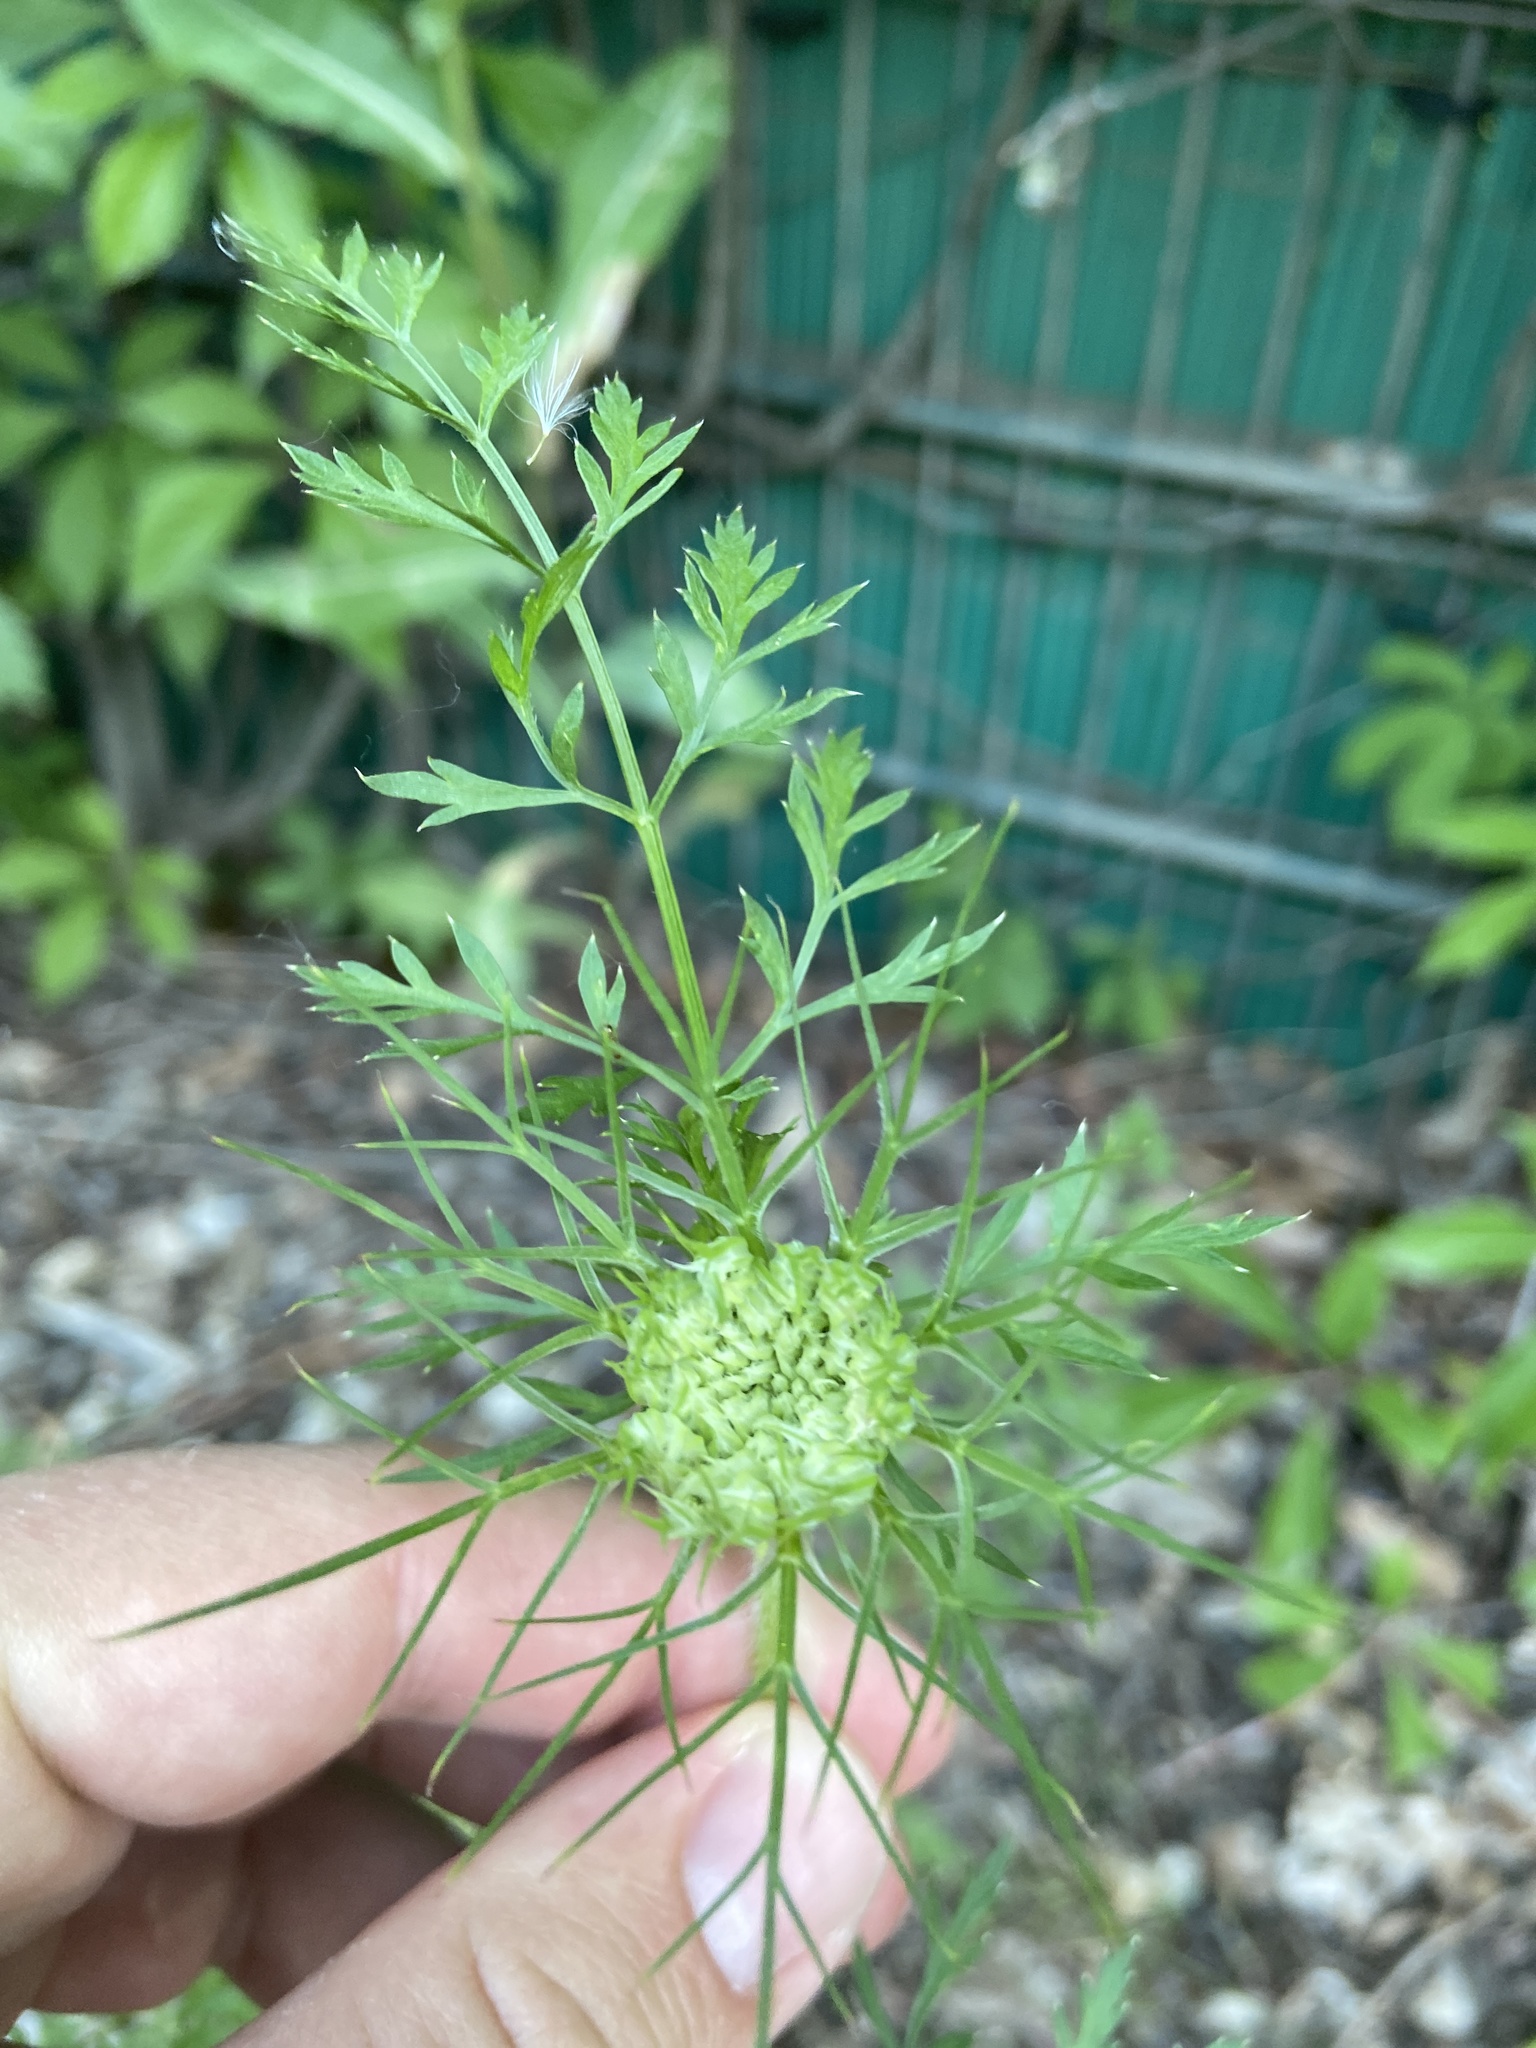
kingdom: Plantae
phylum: Tracheophyta
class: Magnoliopsida
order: Apiales
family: Apiaceae
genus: Daucus
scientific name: Daucus carota
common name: Wild carrot
